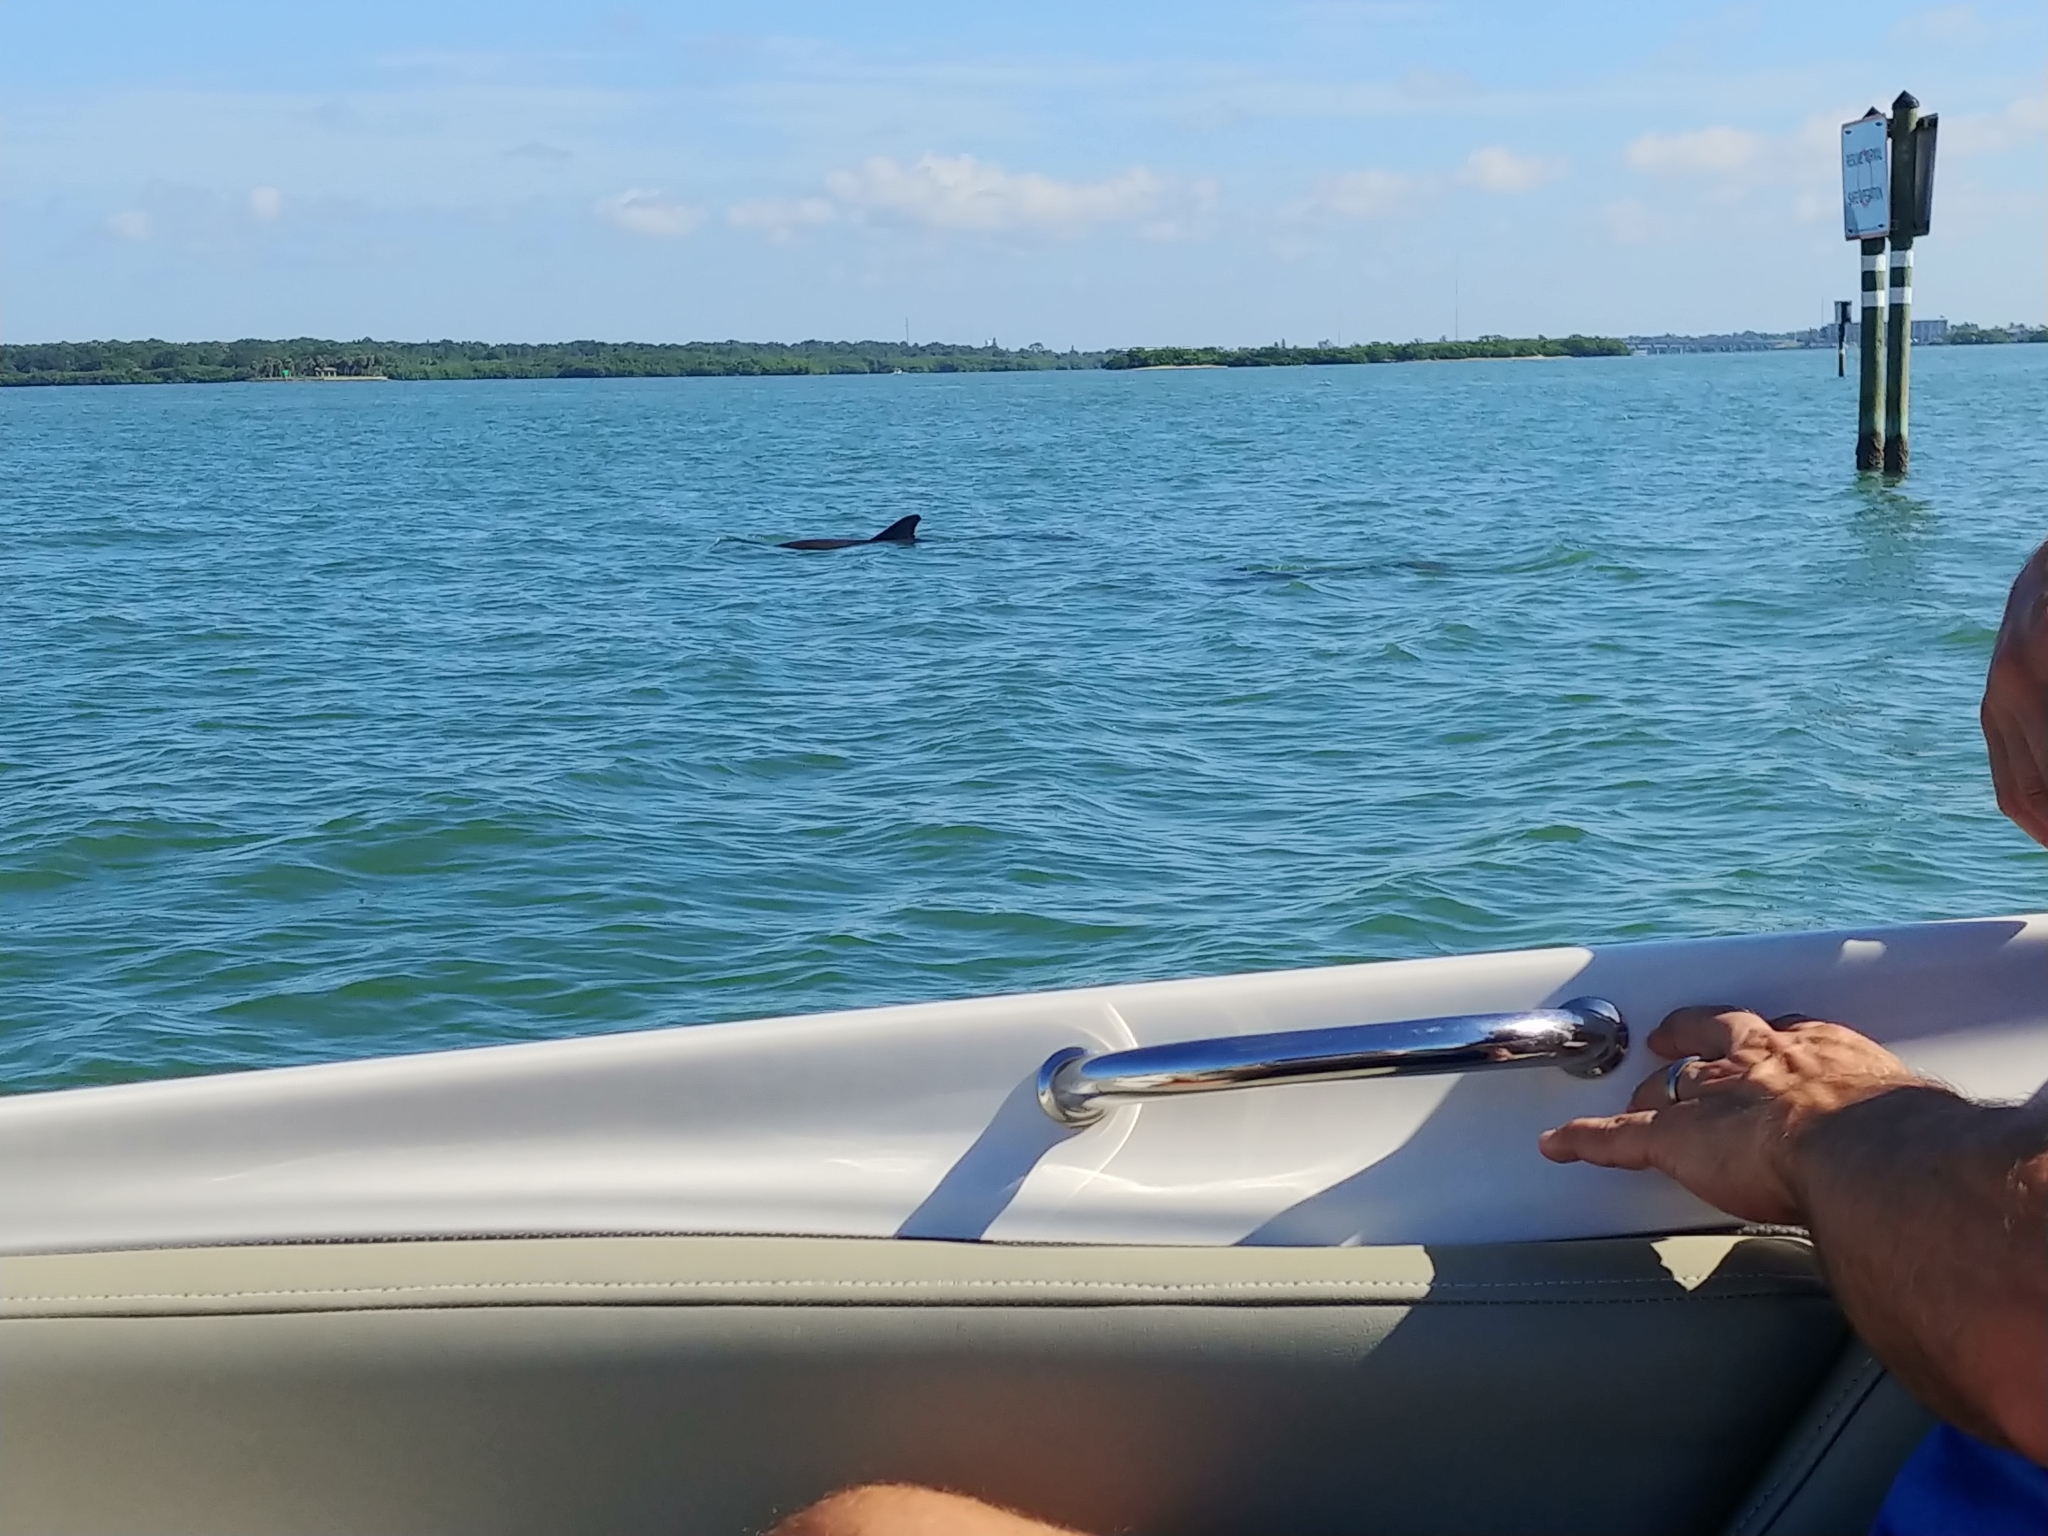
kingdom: Animalia
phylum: Chordata
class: Mammalia
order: Cetacea
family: Delphinidae
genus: Tursiops
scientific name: Tursiops truncatus
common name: Bottlenose dolphin
